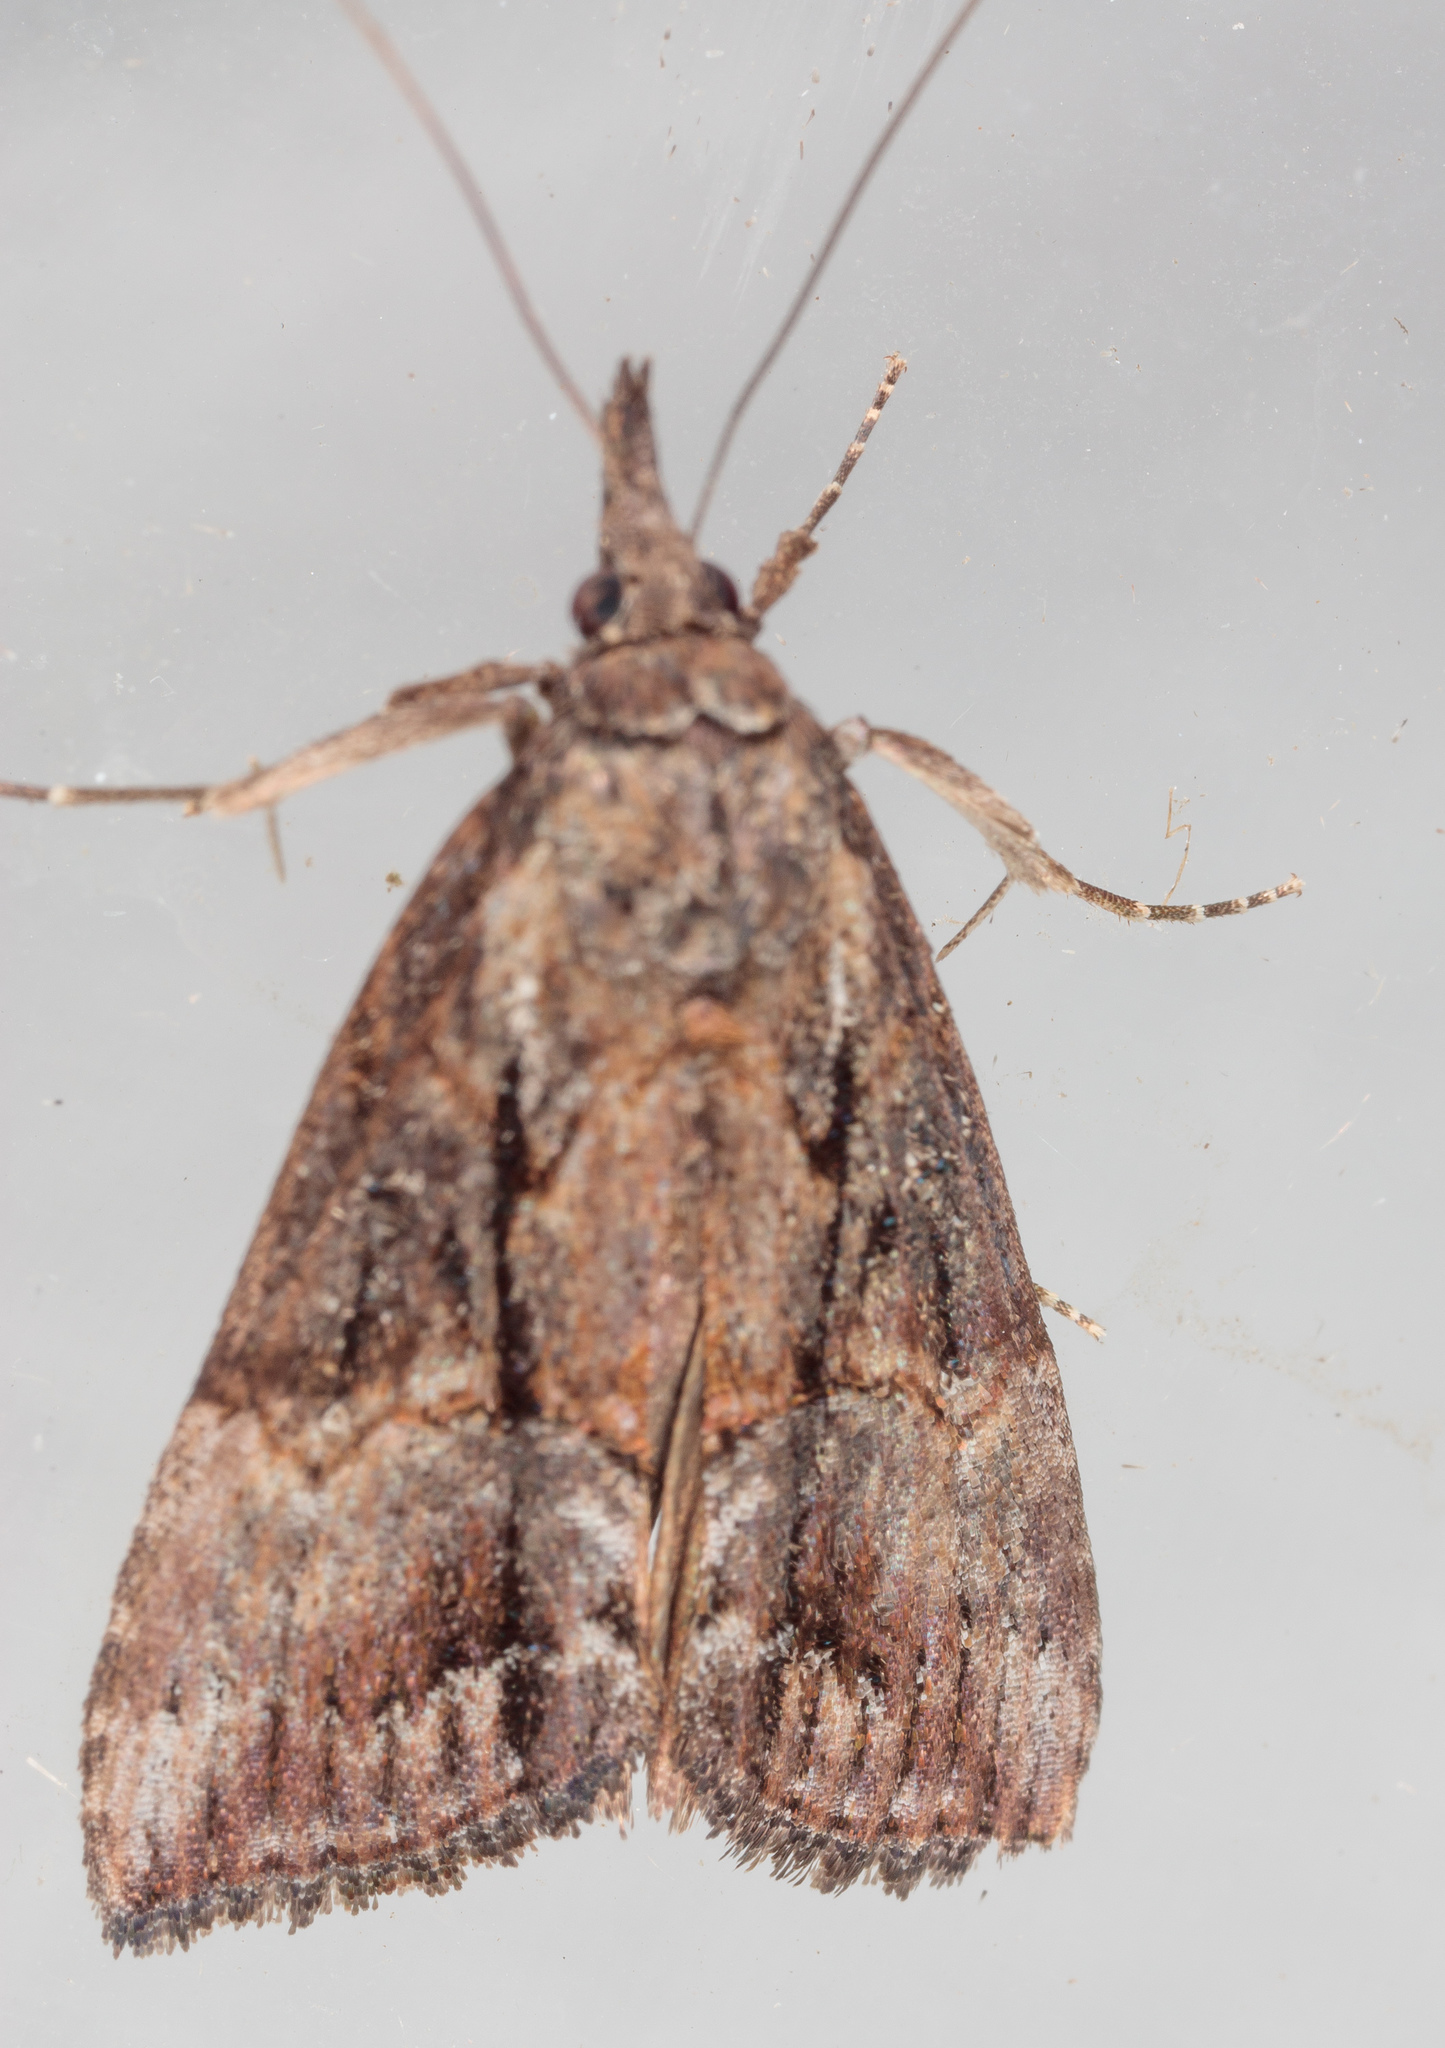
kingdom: Animalia
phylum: Arthropoda
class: Insecta
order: Lepidoptera
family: Erebidae
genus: Hypena
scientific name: Hypena scabra
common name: Green cloverworm
